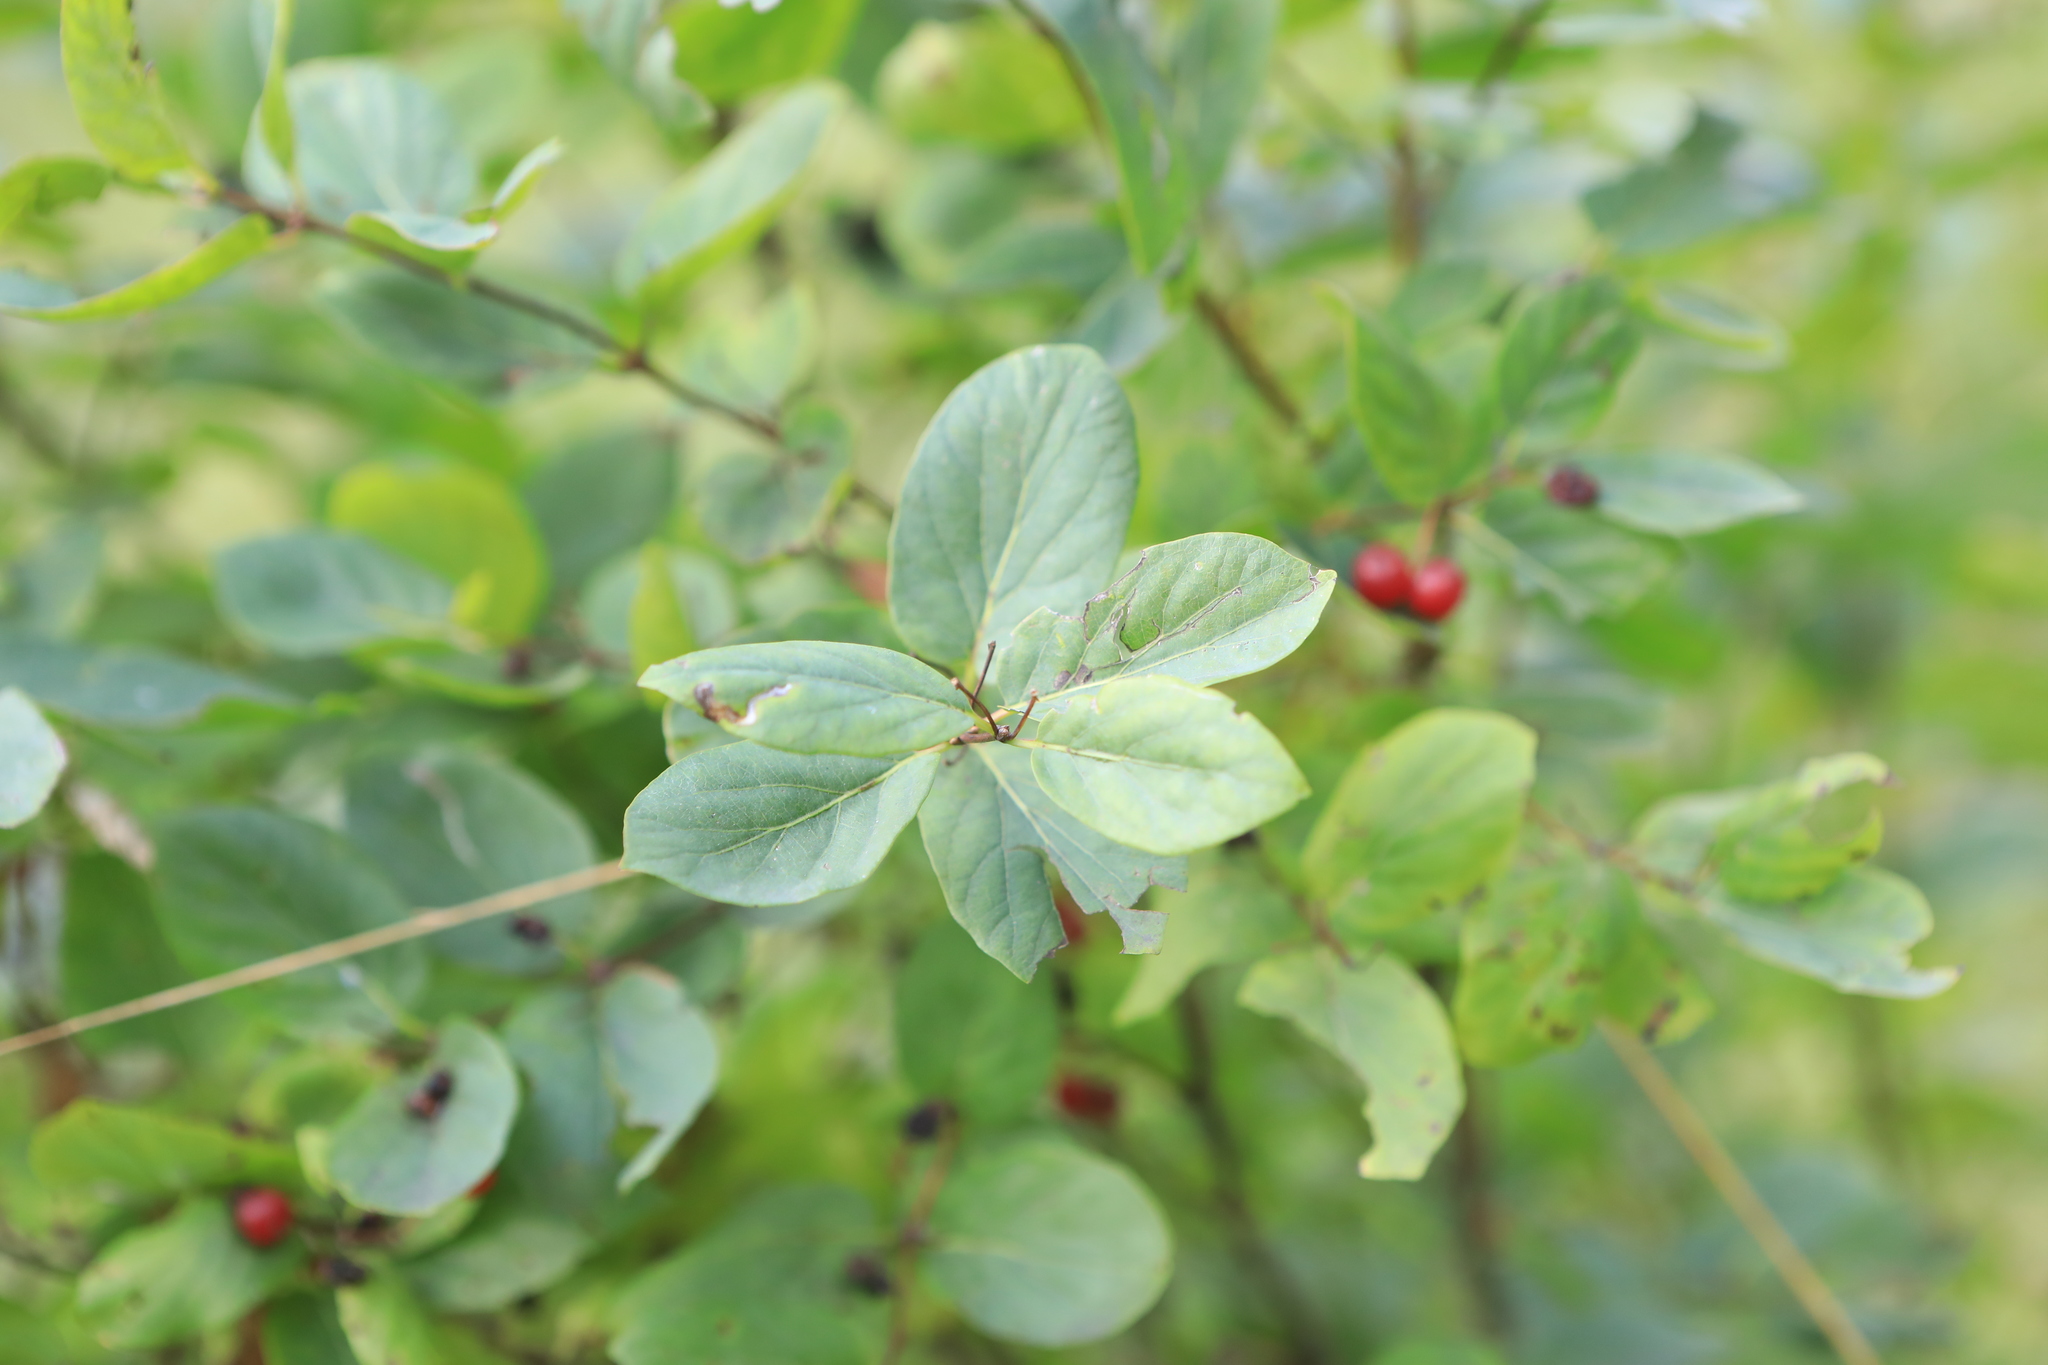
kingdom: Plantae
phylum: Tracheophyta
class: Magnoliopsida
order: Dipsacales
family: Caprifoliaceae
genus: Lonicera
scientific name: Lonicera tatarica
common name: Tatarian honeysuckle
